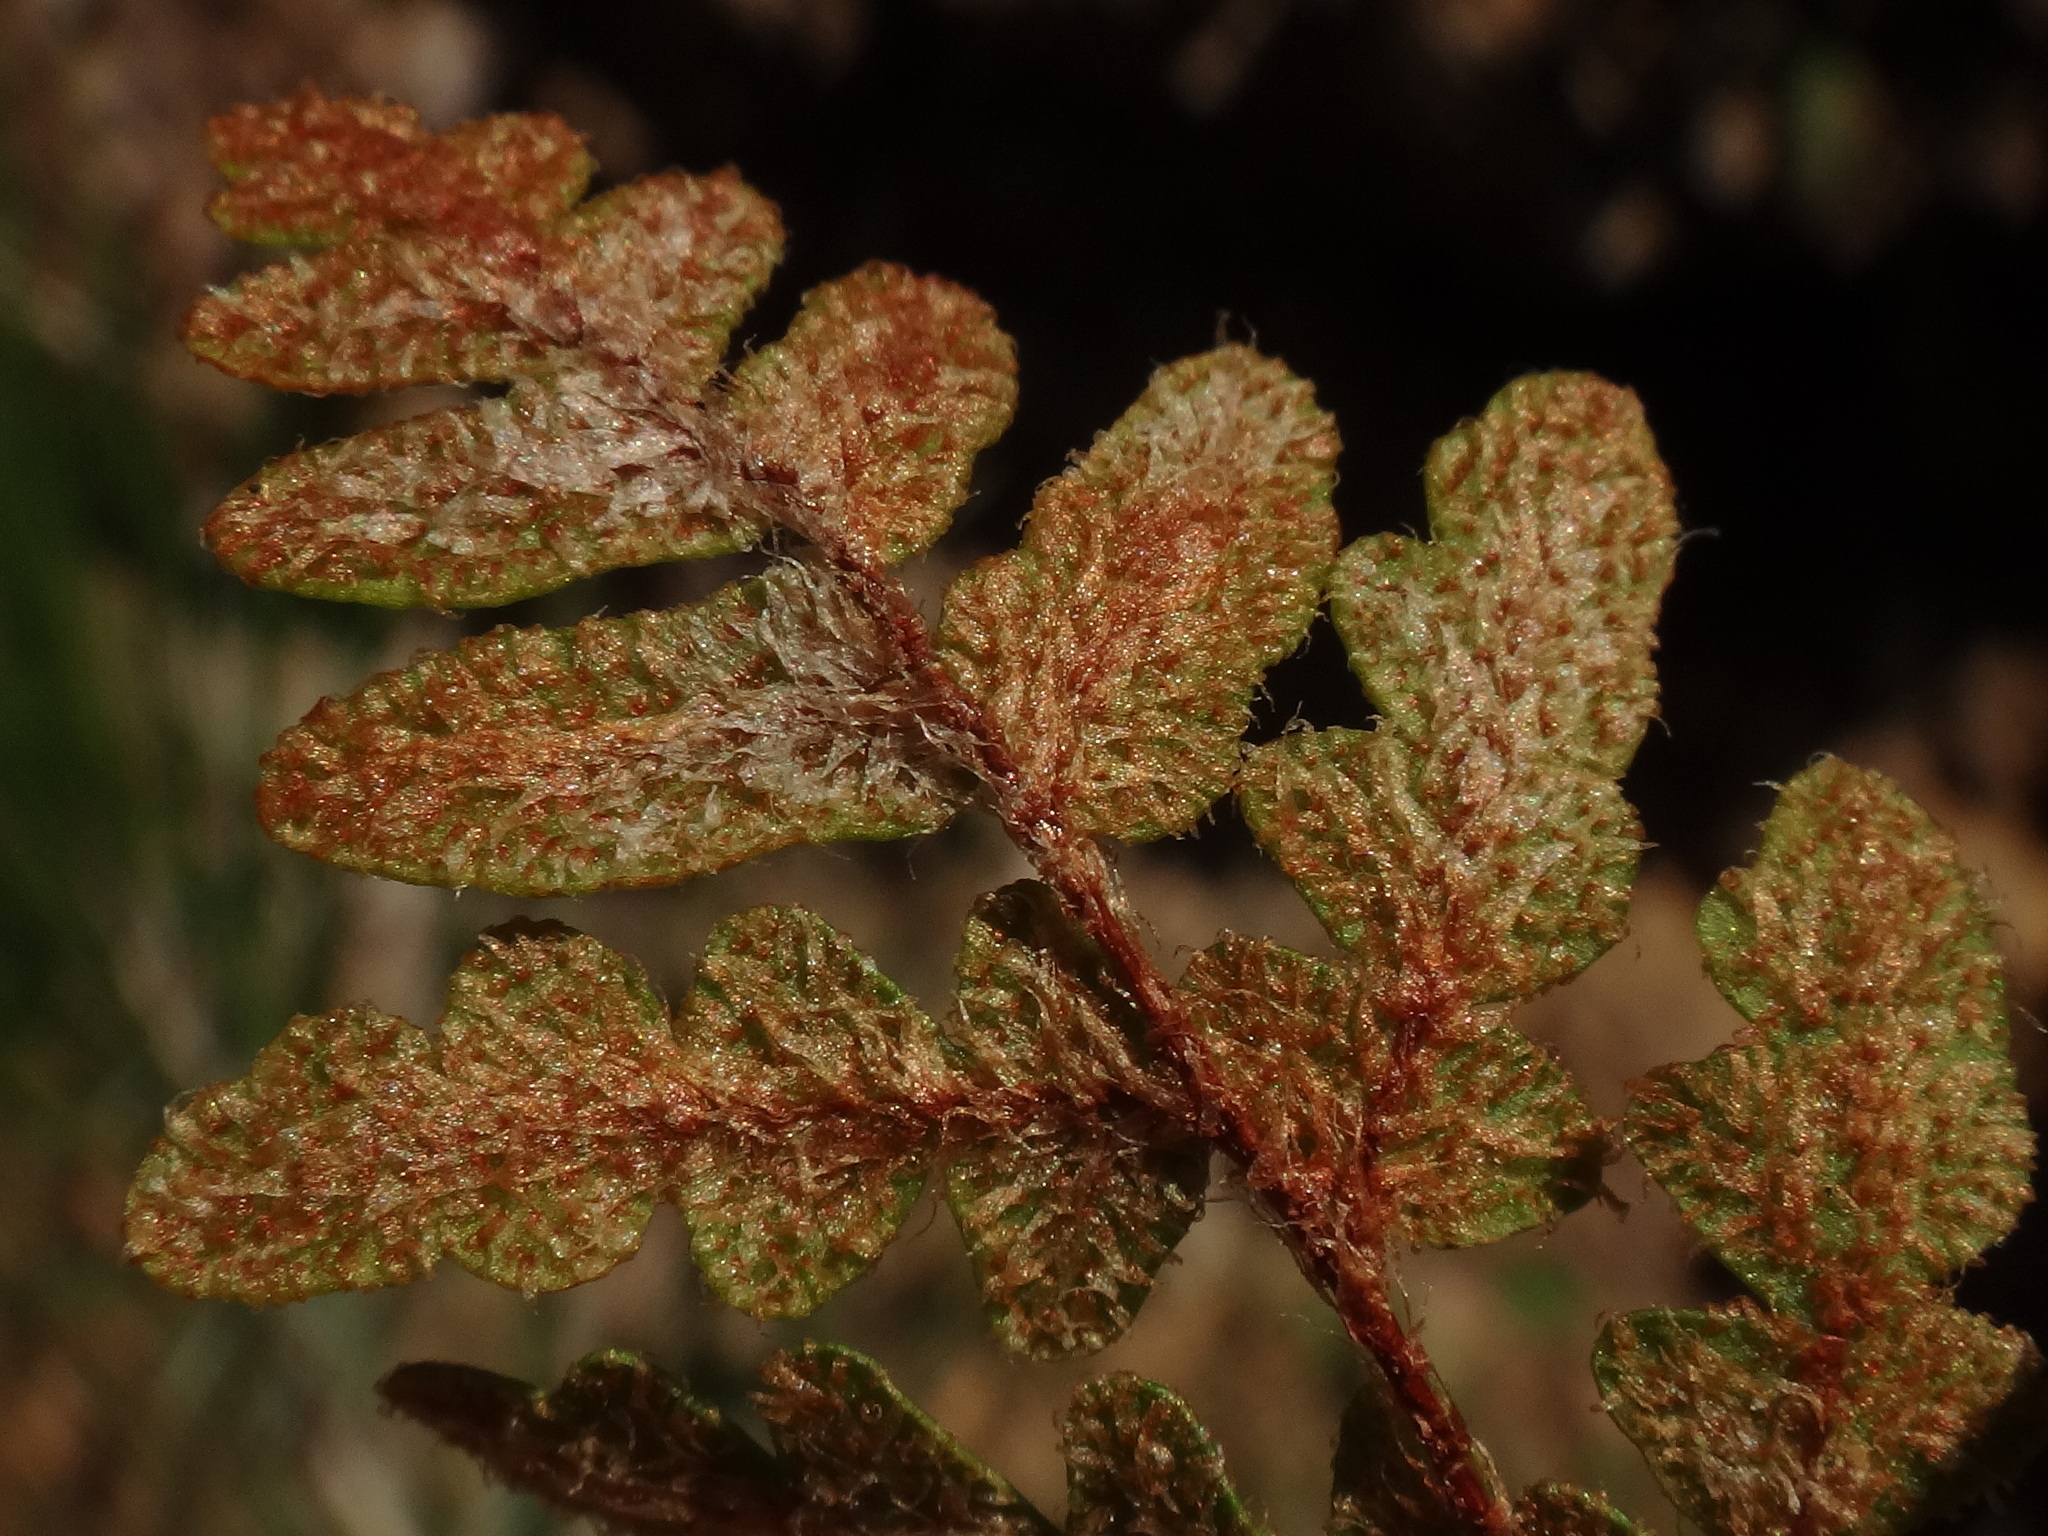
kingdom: Plantae
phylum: Tracheophyta
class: Polypodiopsida
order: Polypodiales
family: Pteridaceae
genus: Paragymnopteris
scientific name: Paragymnopteris marantae
